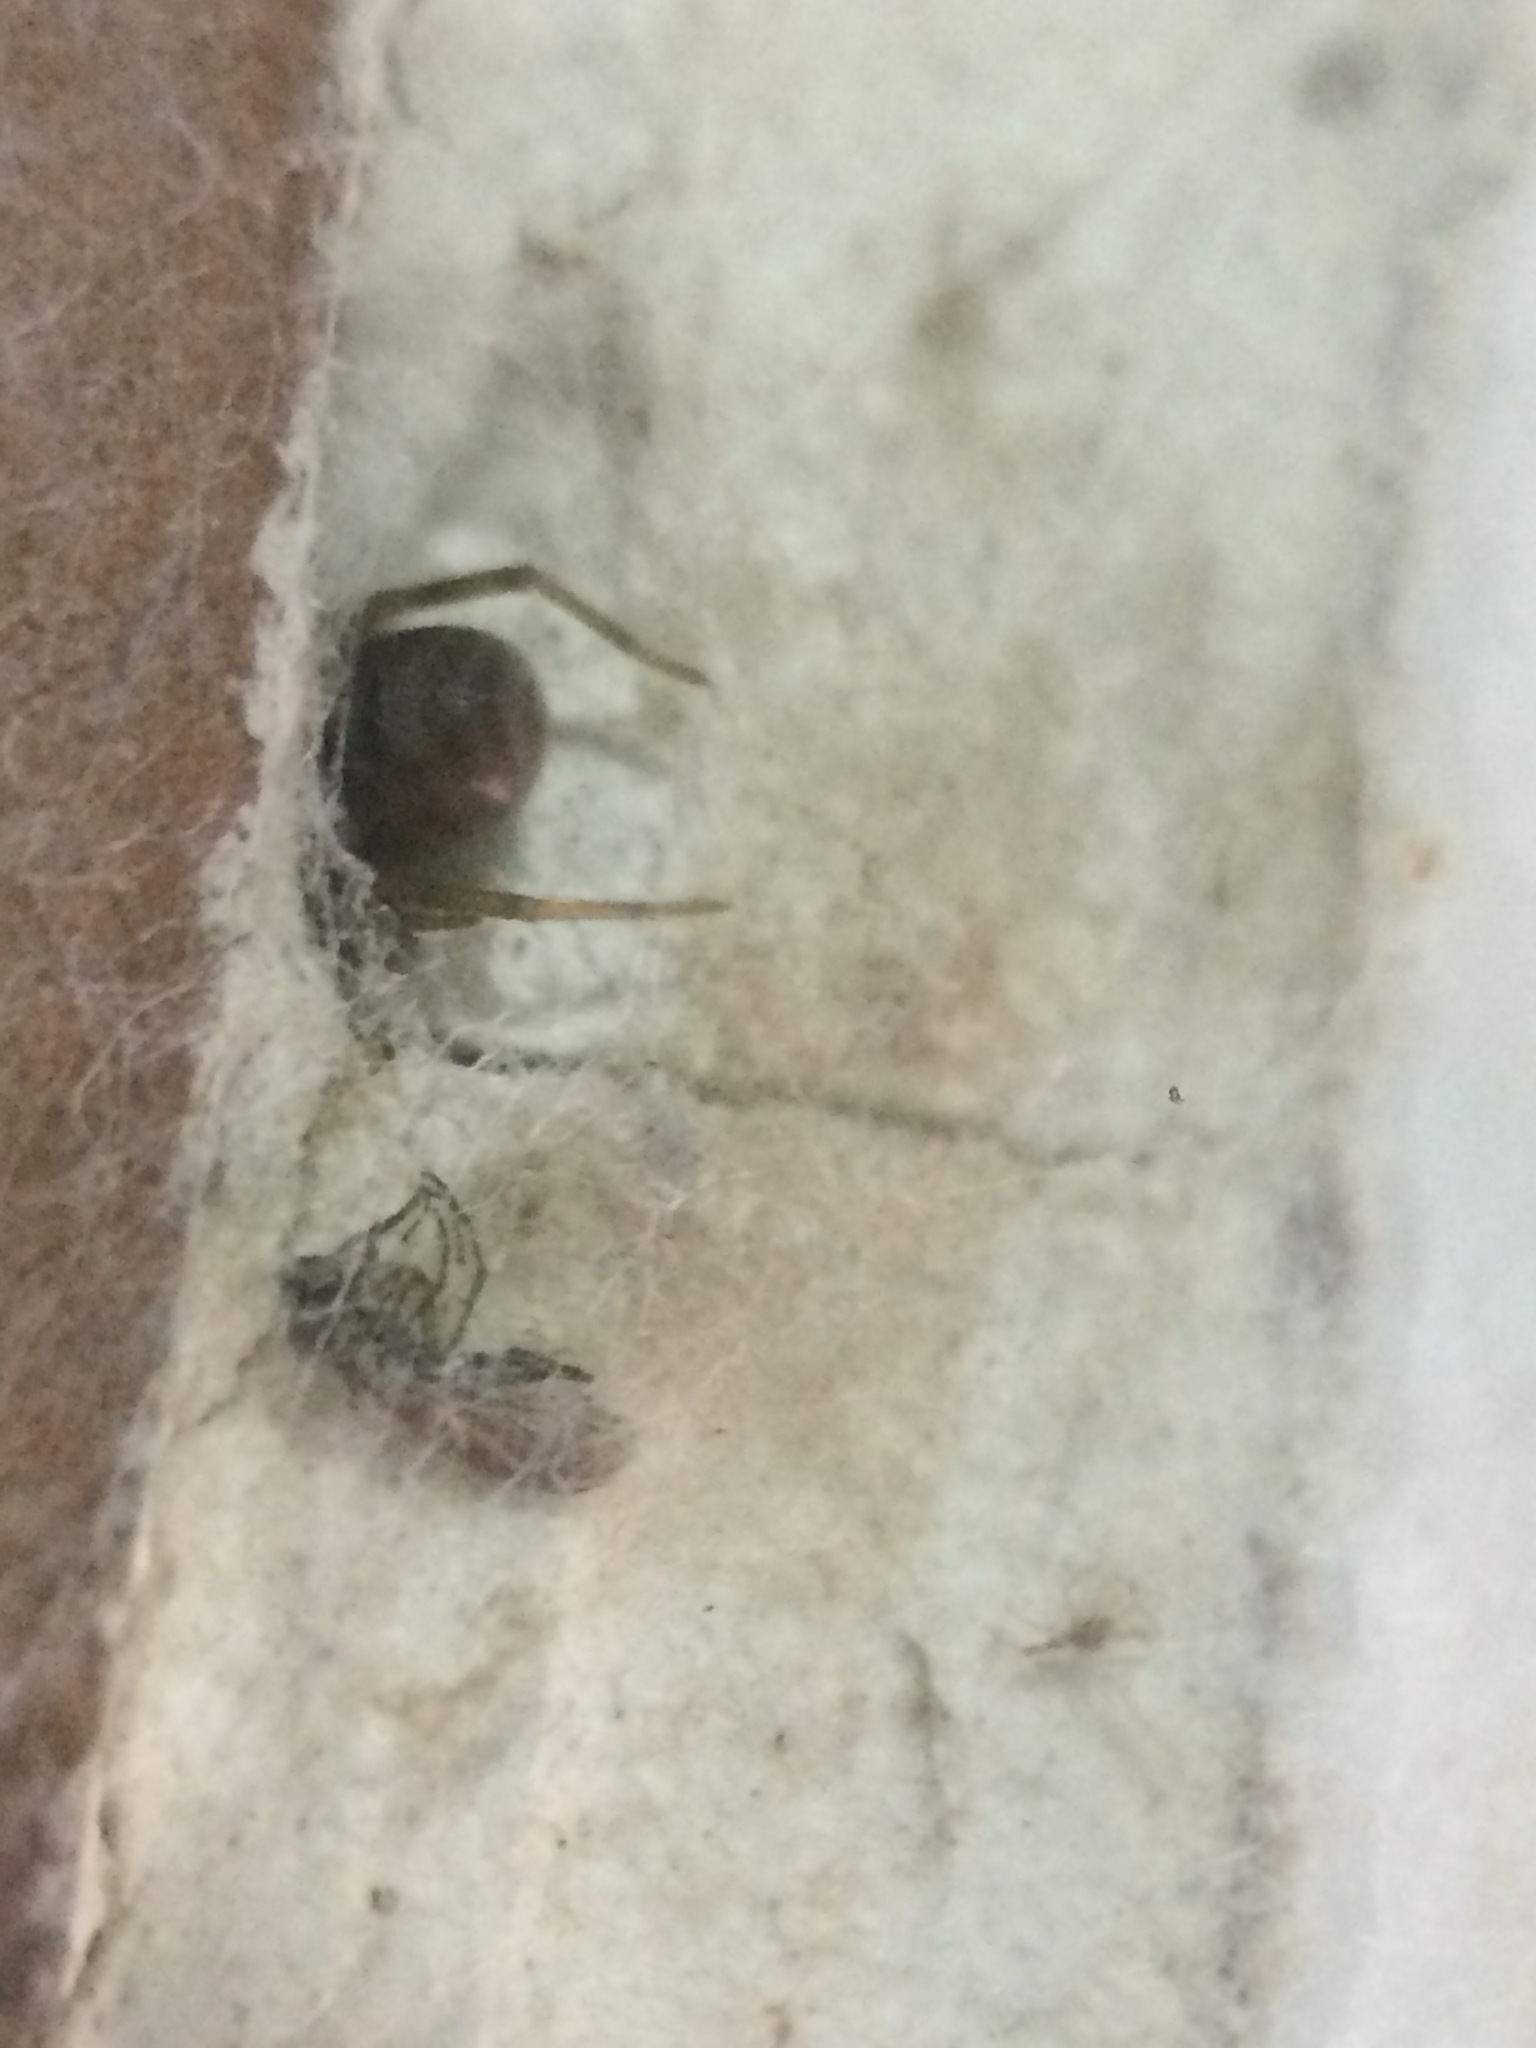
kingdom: Animalia
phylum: Arthropoda
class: Arachnida
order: Araneae
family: Filistatidae
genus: Misionella
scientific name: Misionella mendensis
